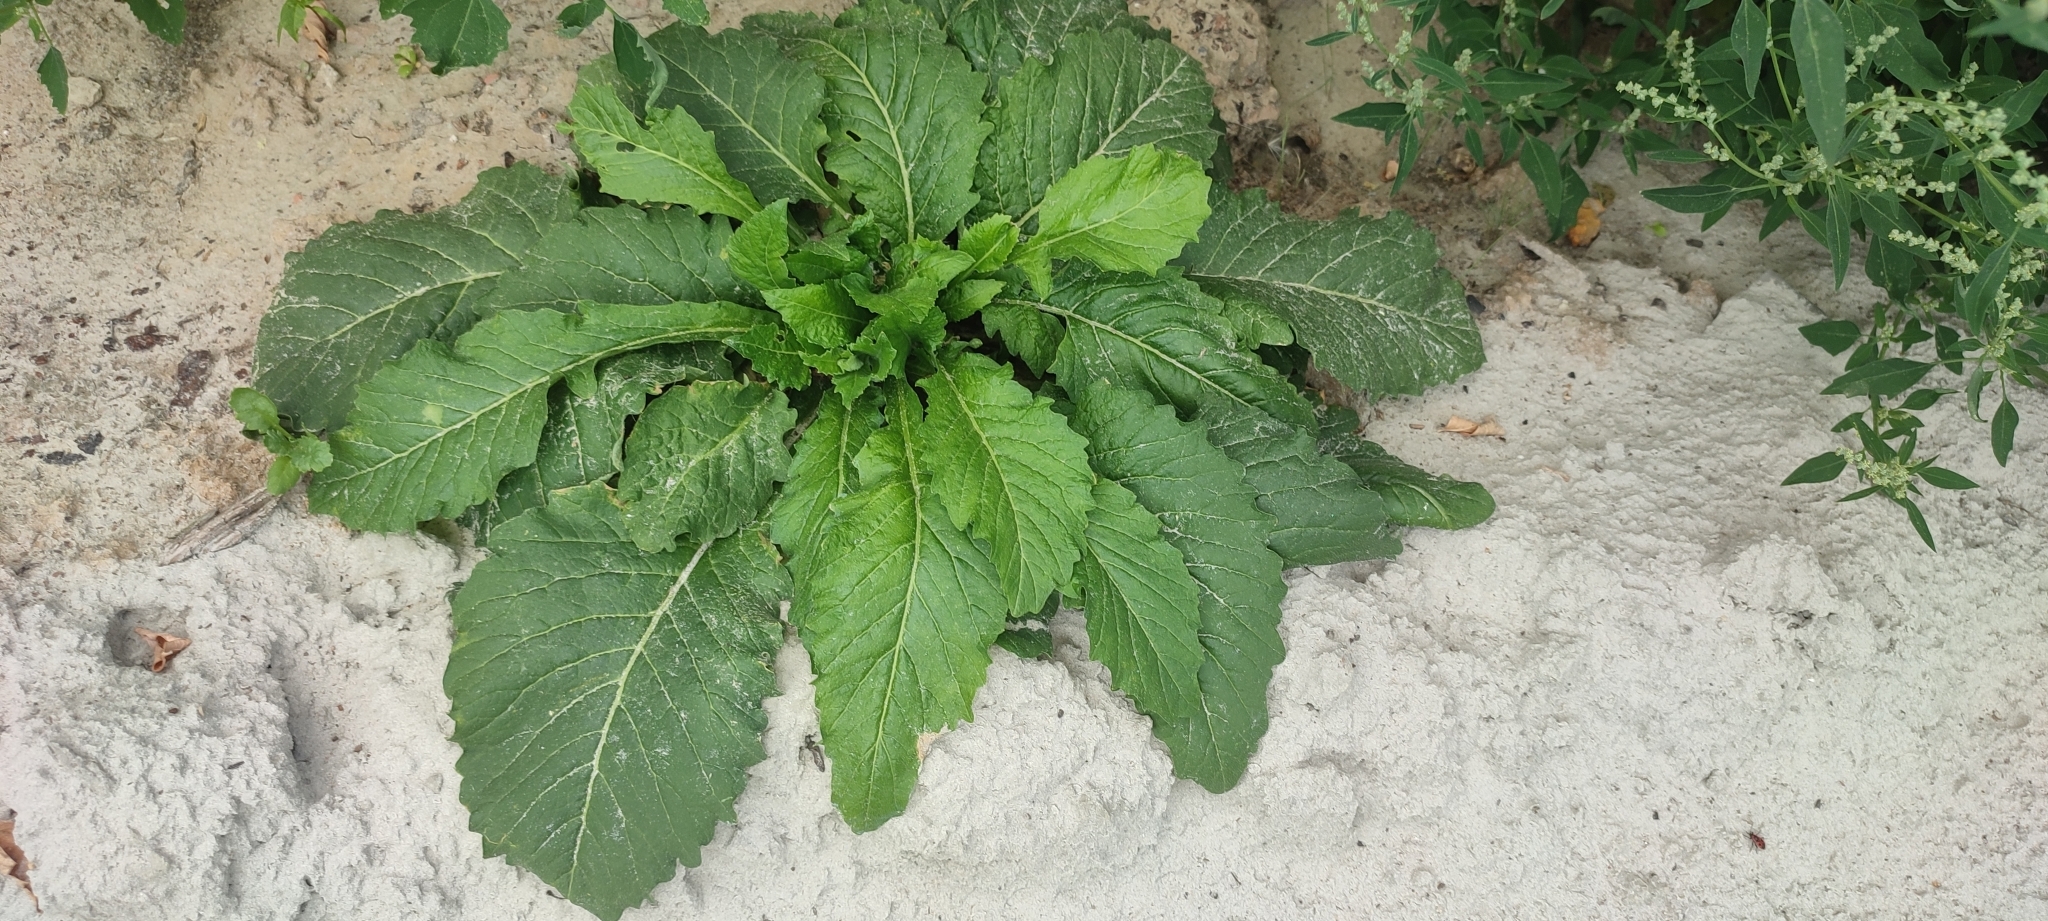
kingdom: Plantae
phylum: Tracheophyta
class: Magnoliopsida
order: Asterales
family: Asteraceae
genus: Carduus
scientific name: Carduus crispus
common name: Welted thistle
